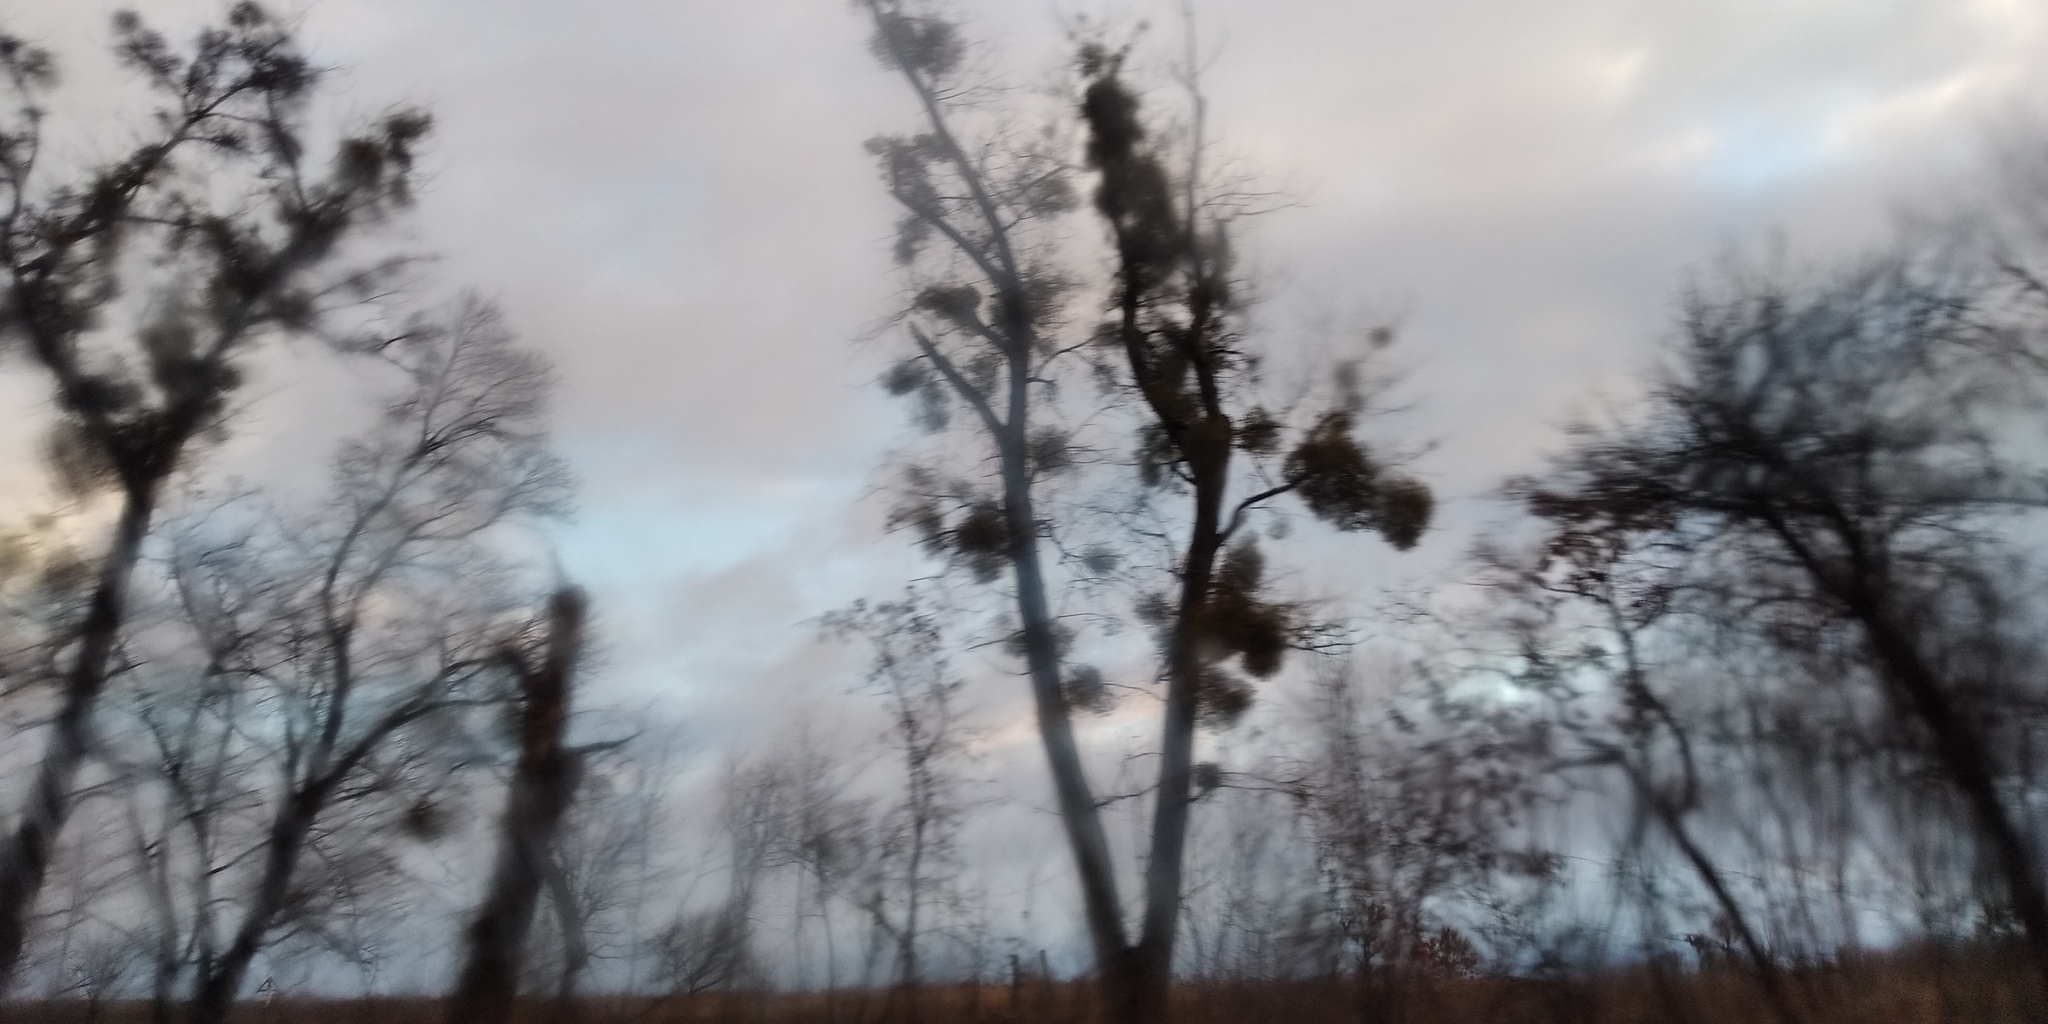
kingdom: Plantae
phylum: Tracheophyta
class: Magnoliopsida
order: Santalales
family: Viscaceae
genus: Viscum
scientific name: Viscum album
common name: Mistletoe
